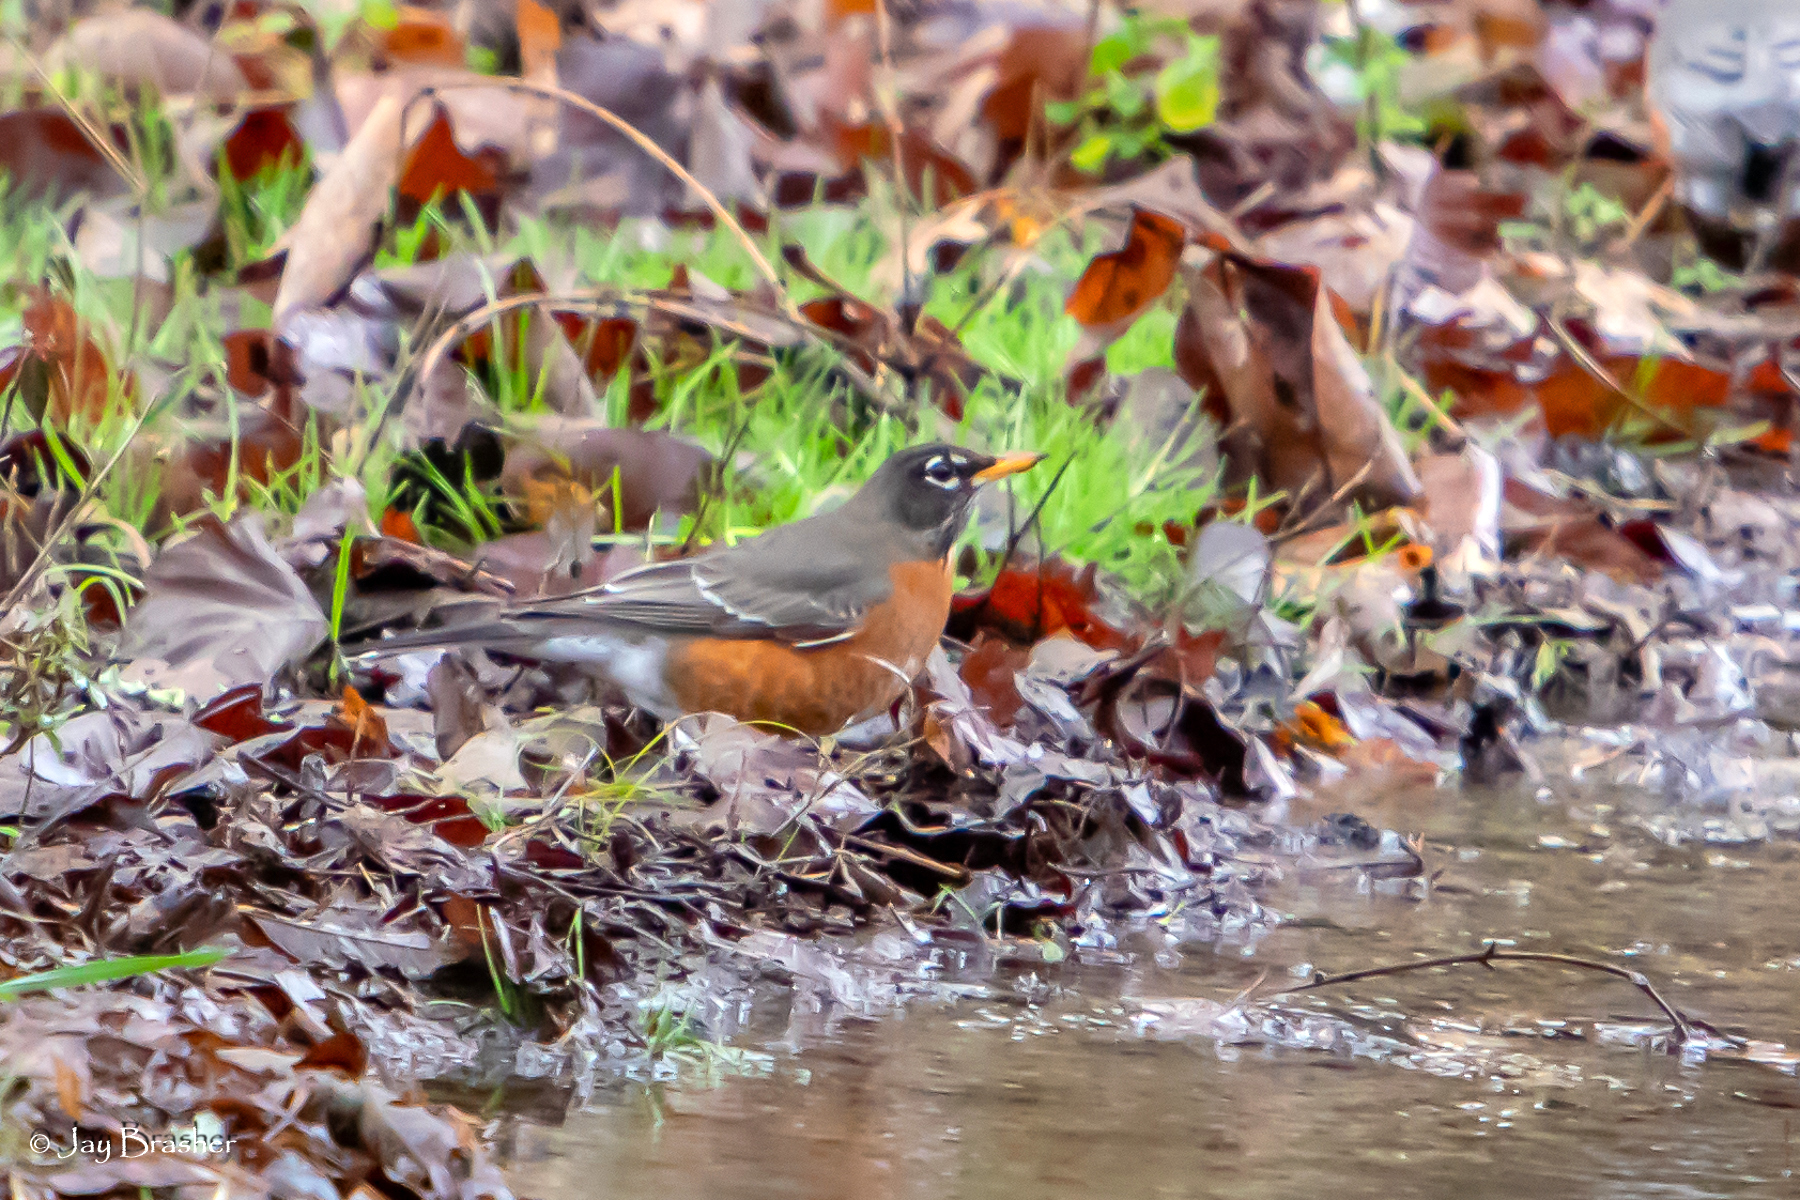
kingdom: Animalia
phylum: Chordata
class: Aves
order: Passeriformes
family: Turdidae
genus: Turdus
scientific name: Turdus migratorius
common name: American robin
